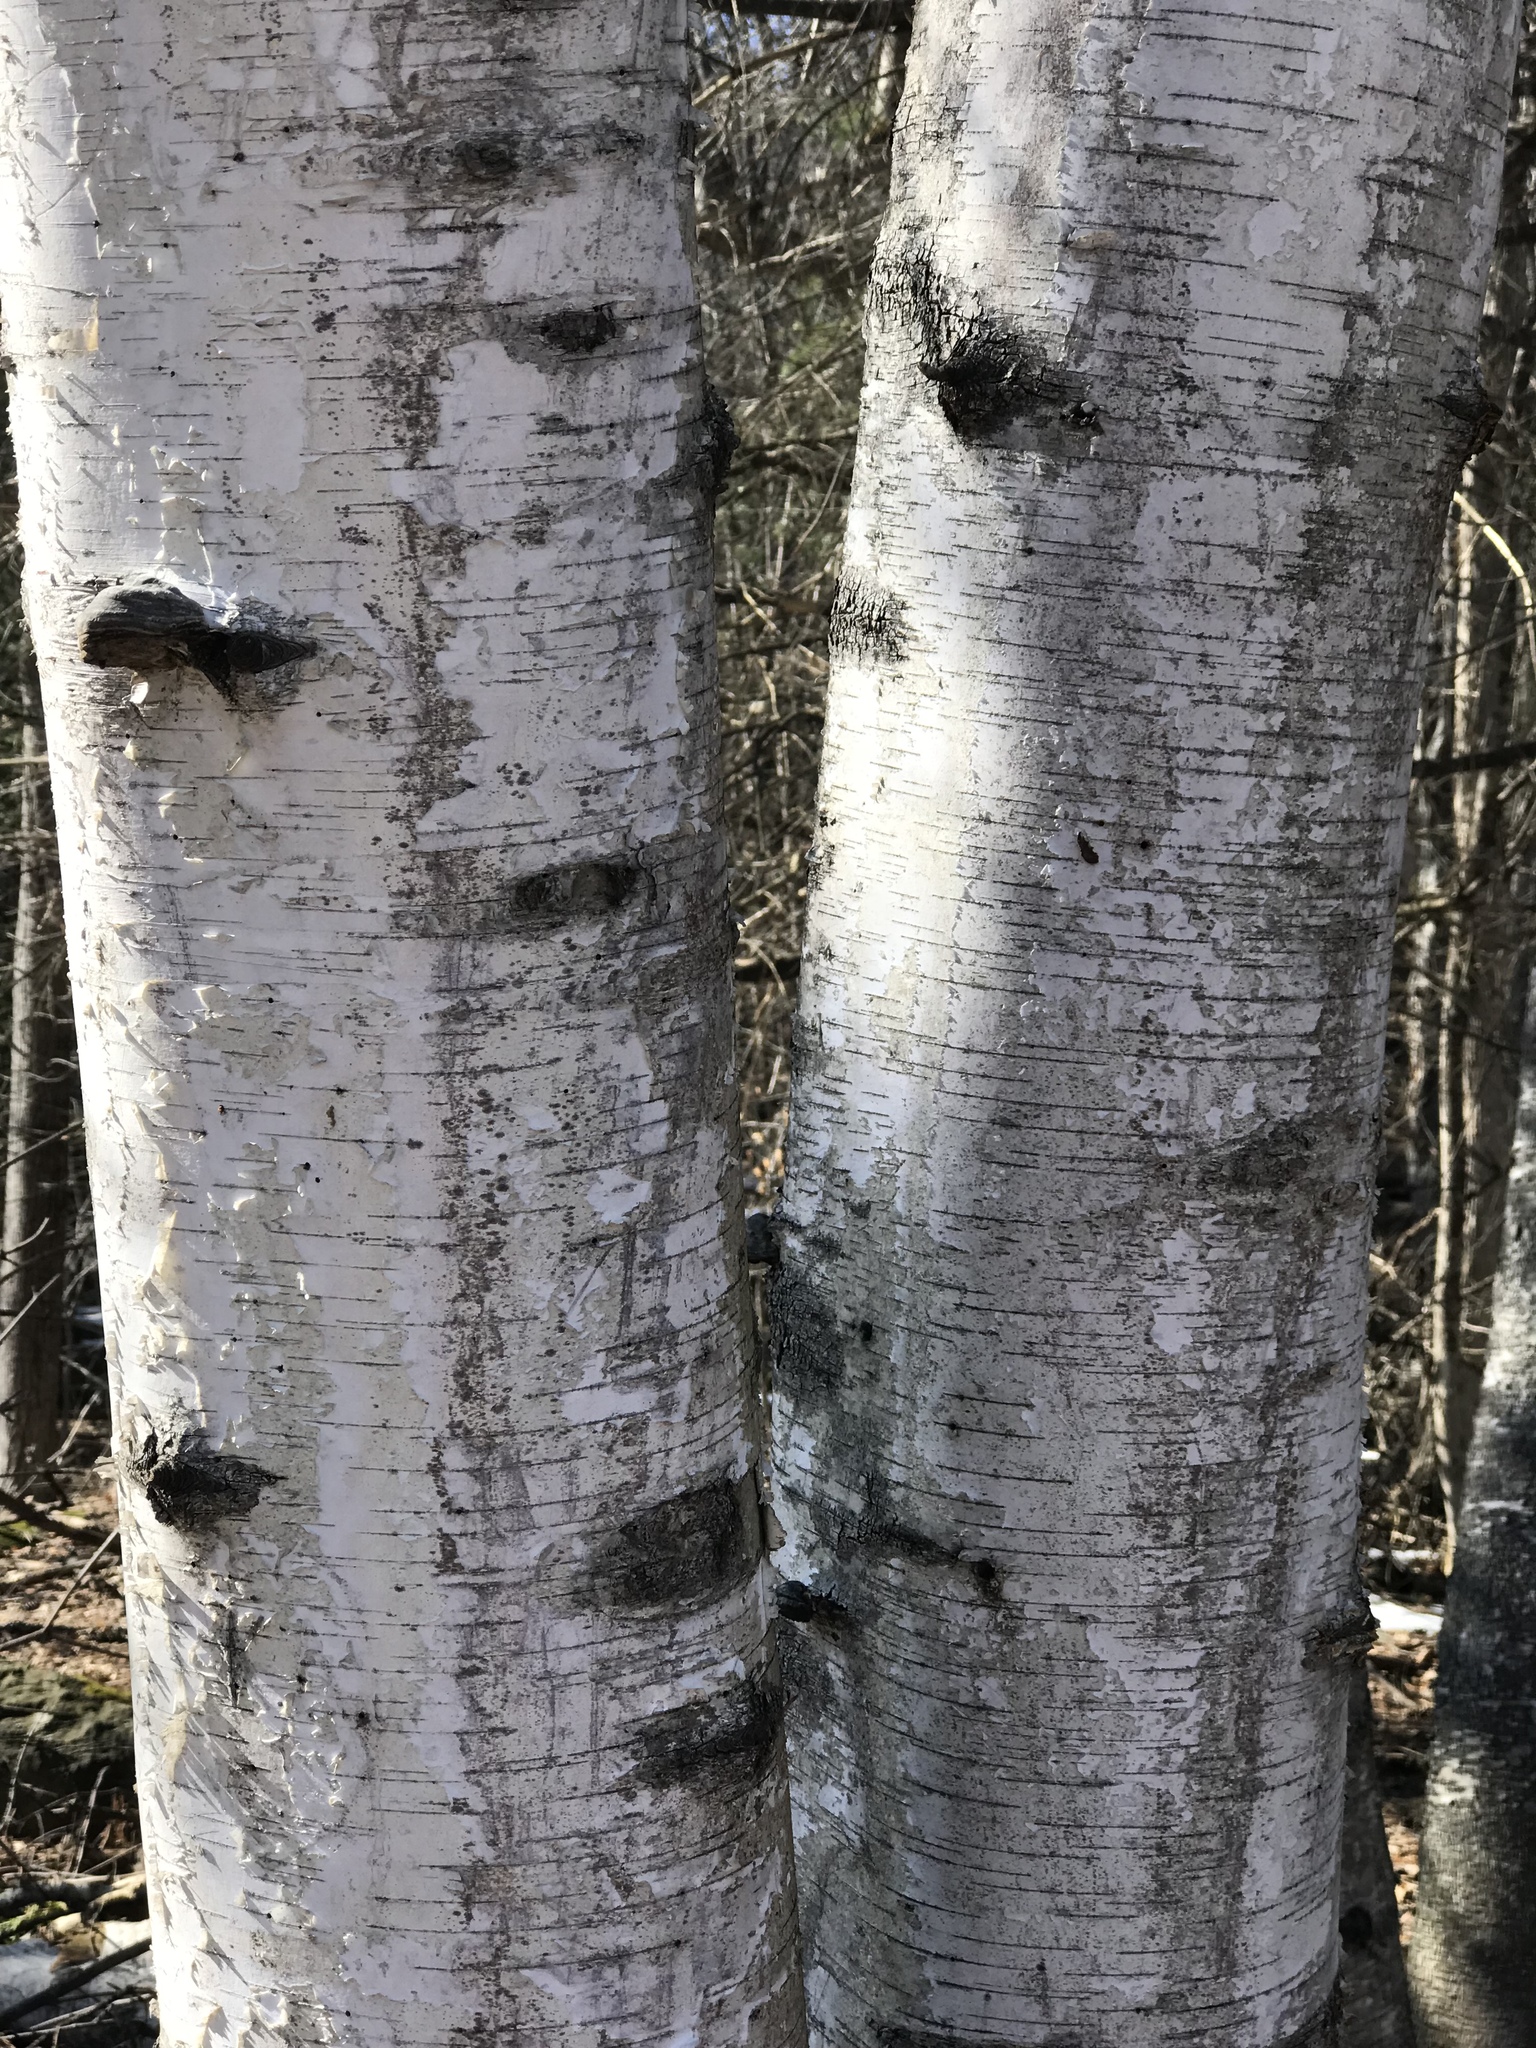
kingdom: Plantae
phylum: Tracheophyta
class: Magnoliopsida
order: Fagales
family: Betulaceae
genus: Betula
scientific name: Betula papyrifera
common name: Paper birch
